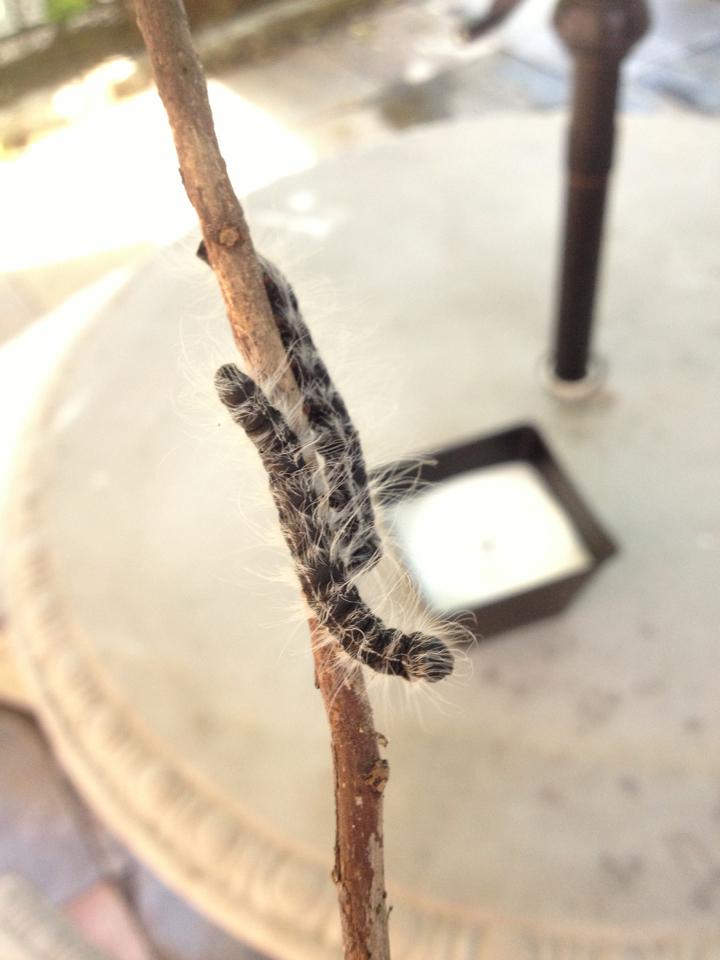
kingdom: Animalia
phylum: Arthropoda
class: Insecta
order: Lepidoptera
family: Notodontidae
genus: Datana
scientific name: Datana integerrima
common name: Walnut caterpillar
